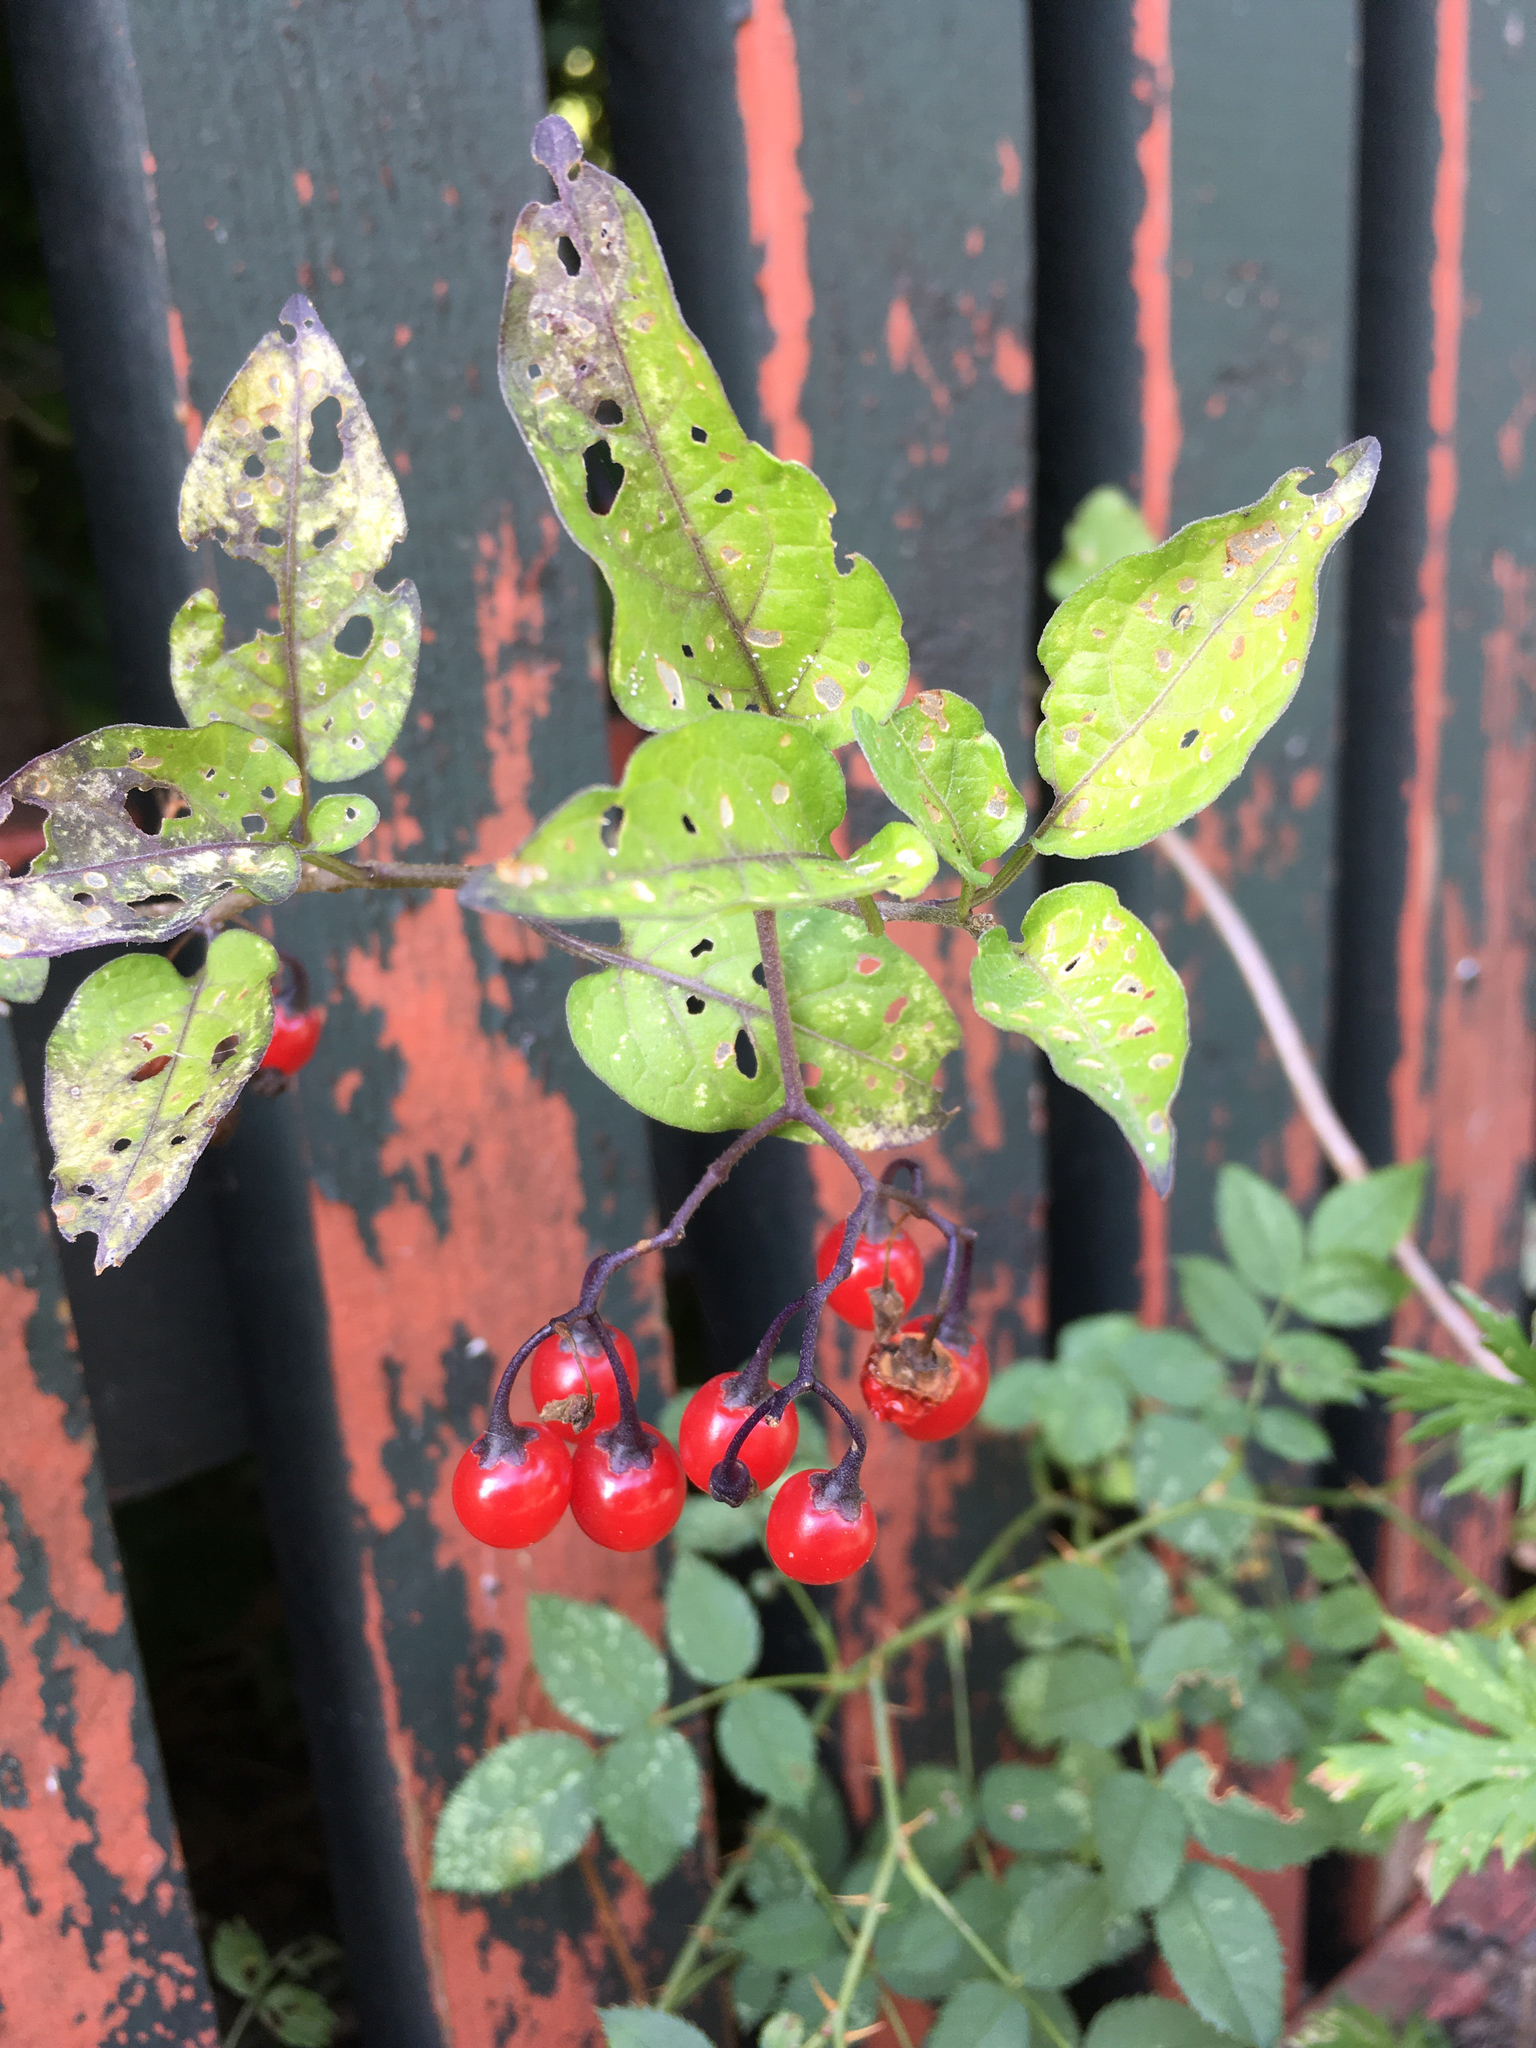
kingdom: Plantae
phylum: Tracheophyta
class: Magnoliopsida
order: Solanales
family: Solanaceae
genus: Solanum
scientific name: Solanum dulcamara
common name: Climbing nightshade
